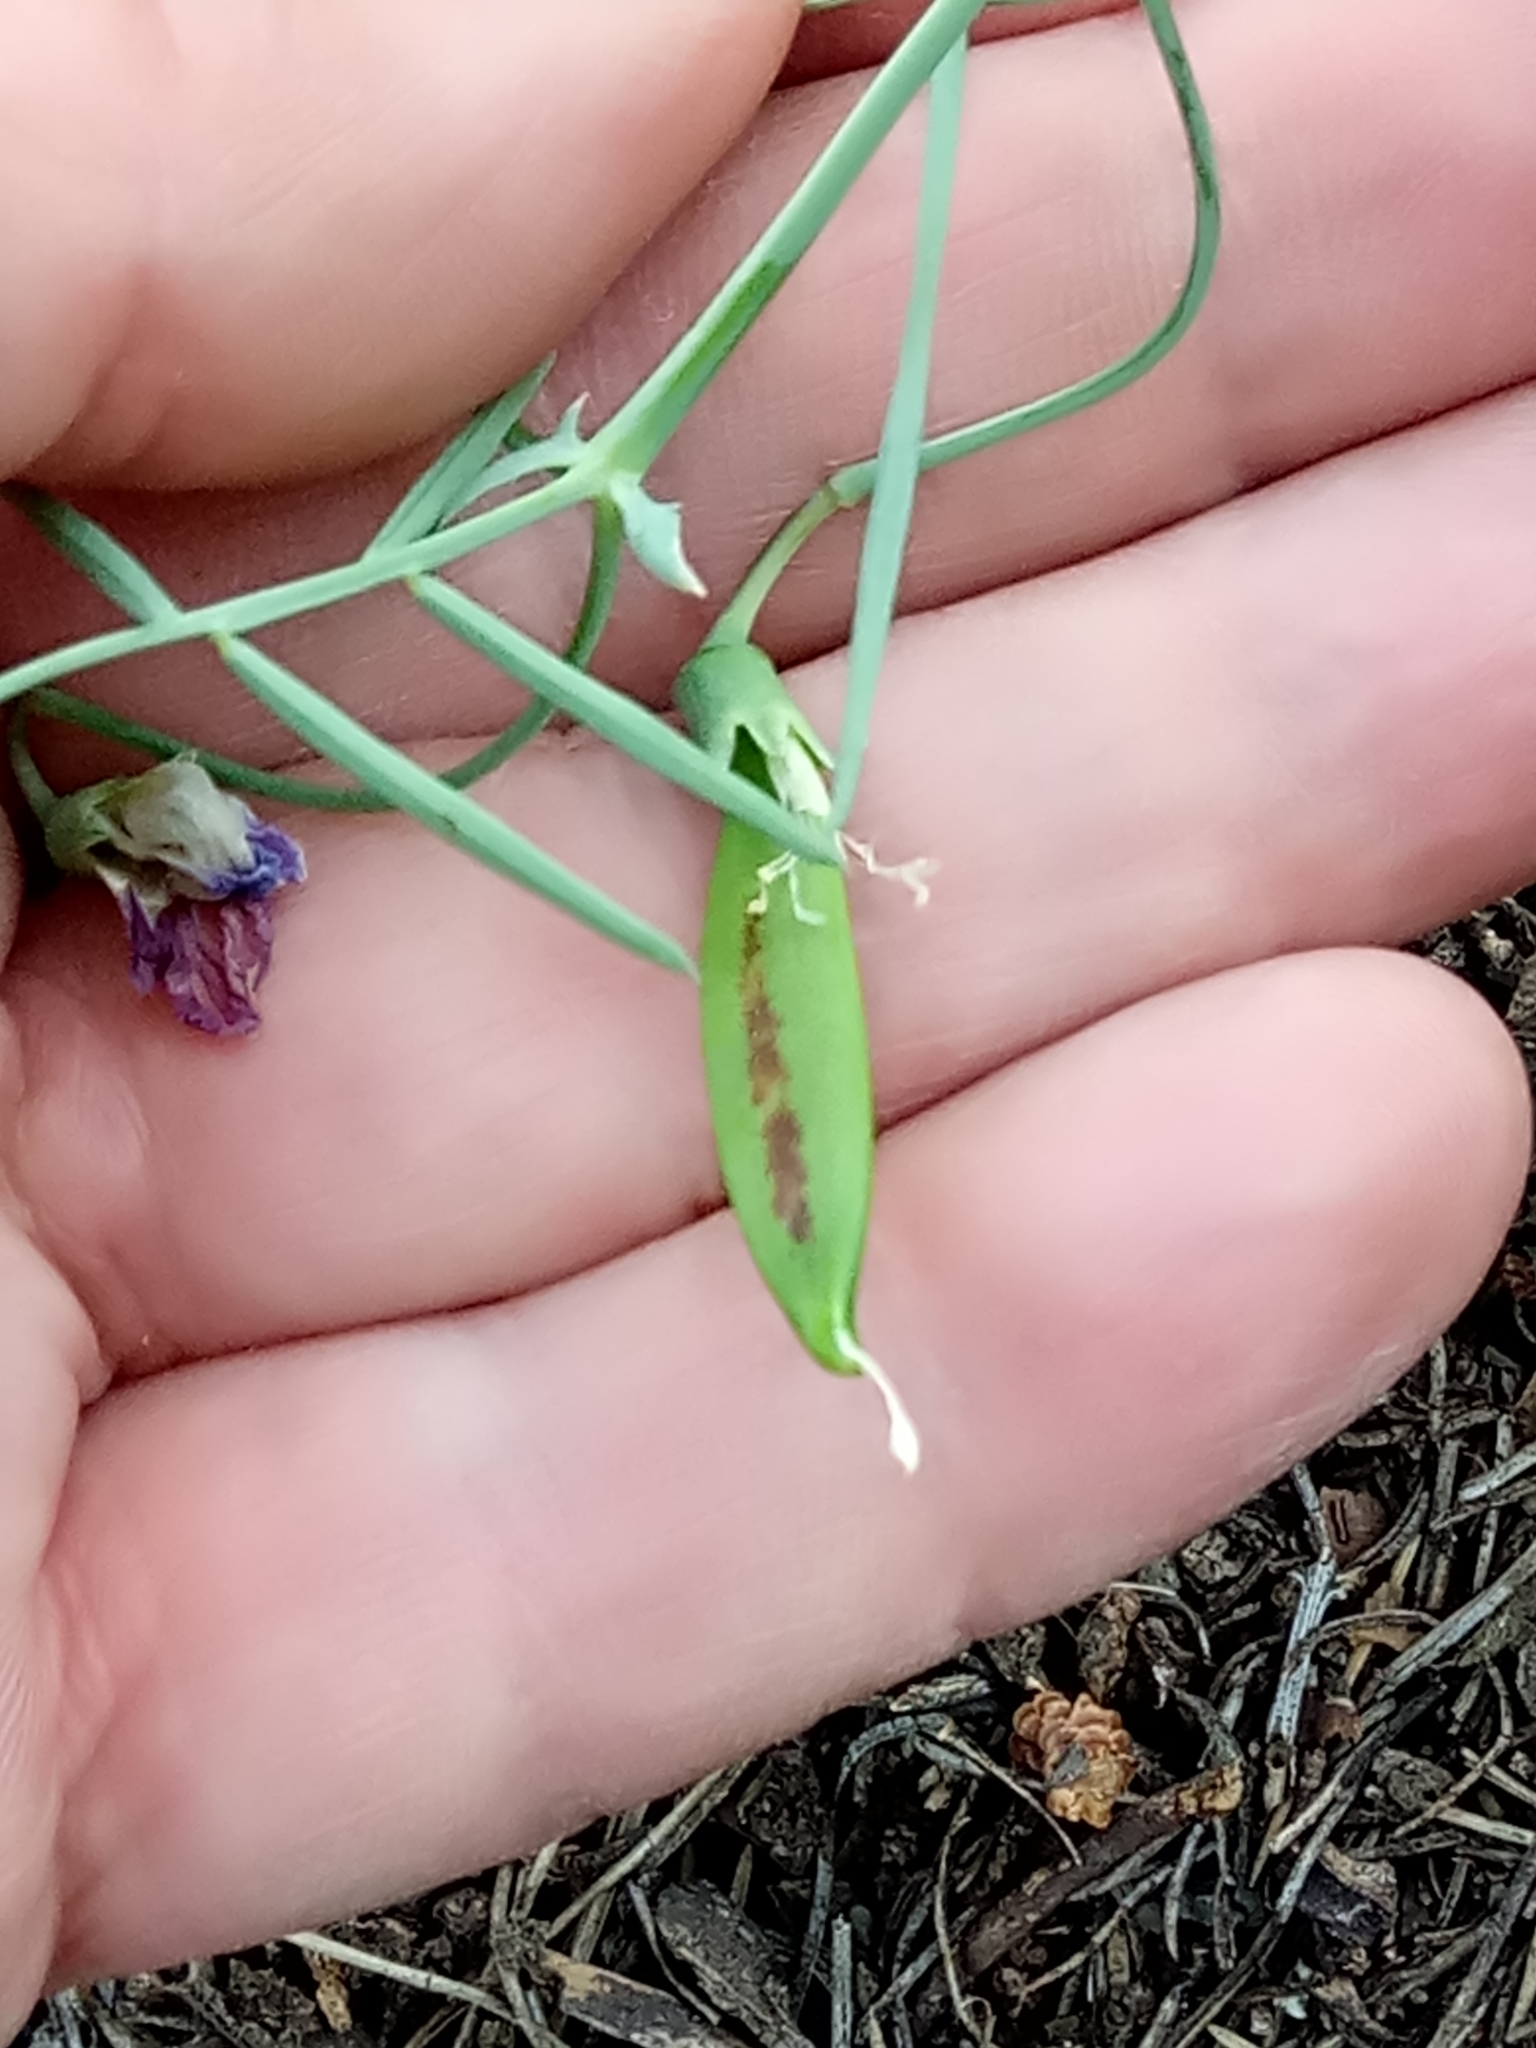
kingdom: Plantae
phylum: Tracheophyta
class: Magnoliopsida
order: Fabales
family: Fabaceae
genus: Lathyrus
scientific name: Lathyrus clymenum
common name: Spanish vetchling
